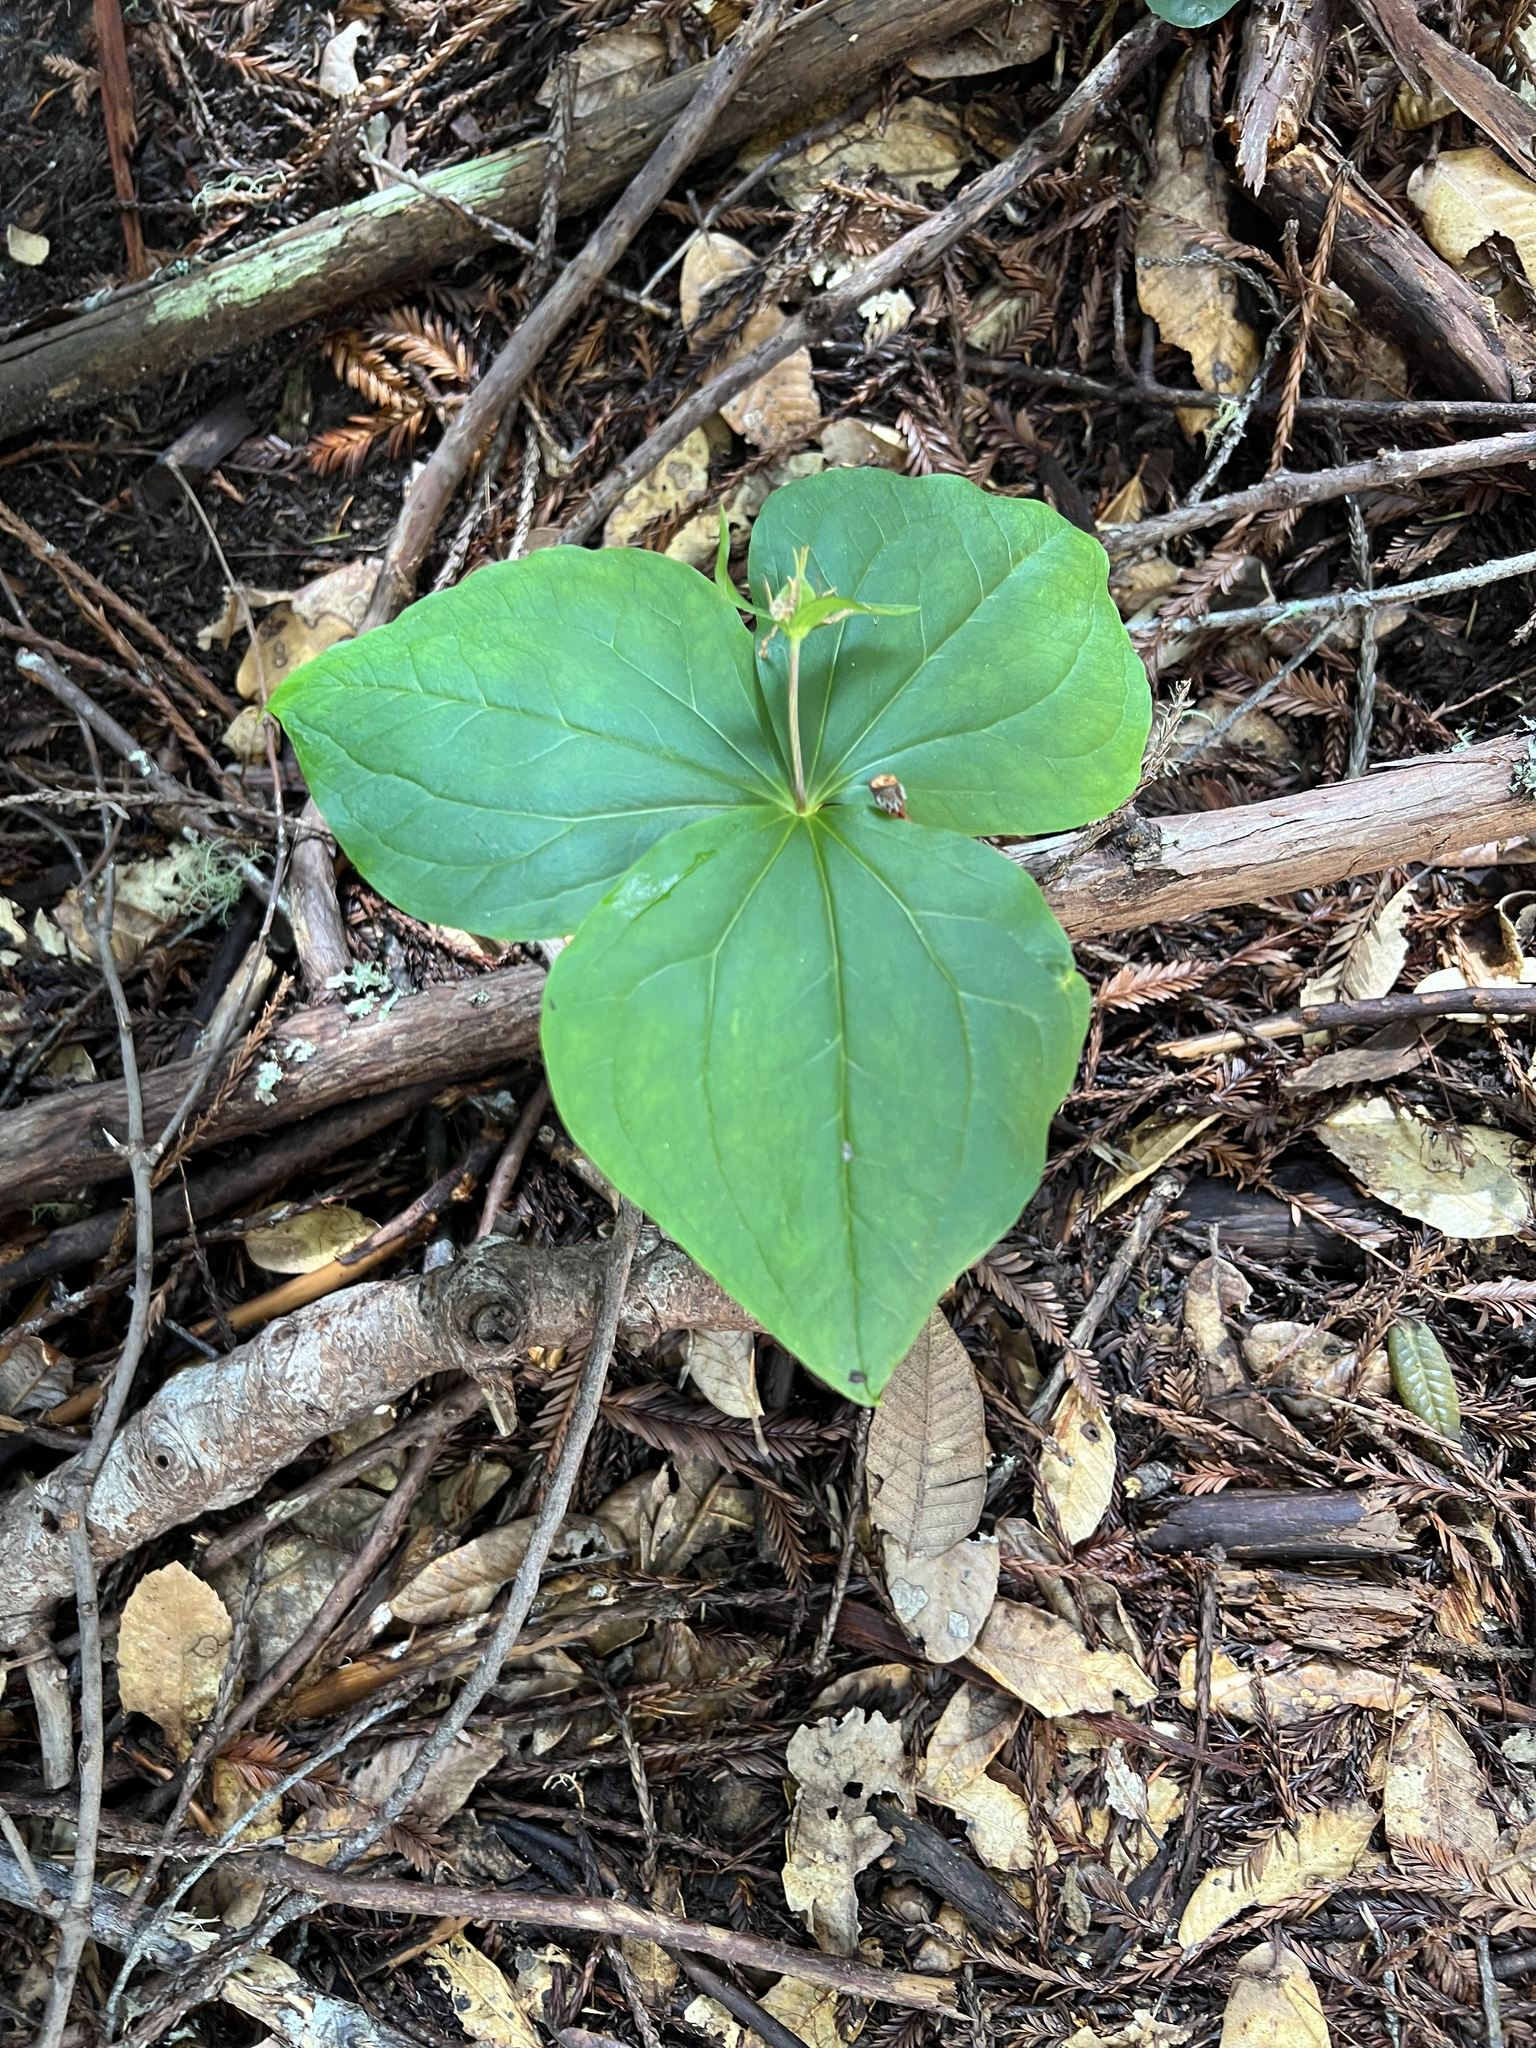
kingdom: Plantae
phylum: Tracheophyta
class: Liliopsida
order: Liliales
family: Melanthiaceae
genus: Trillium
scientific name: Trillium ovatum
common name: Pacific trillium
